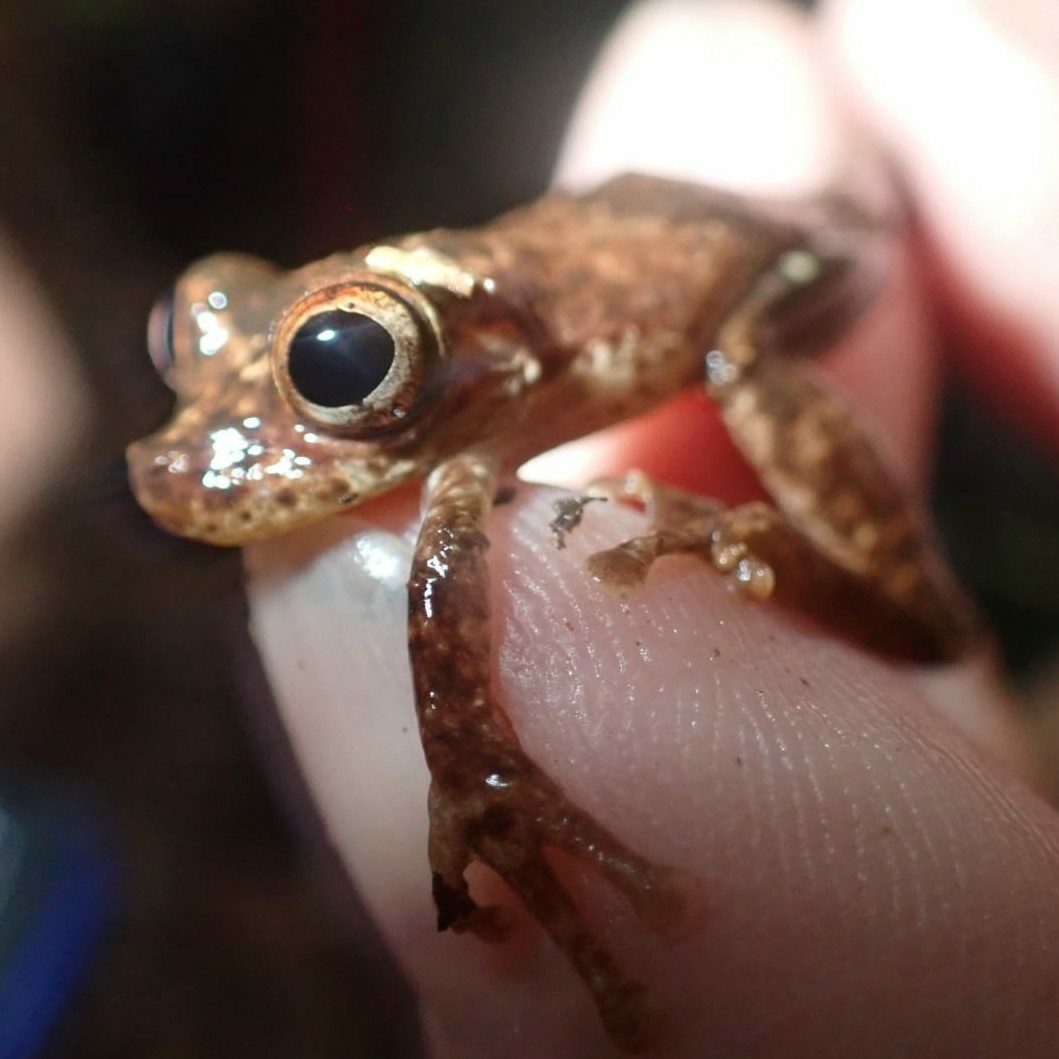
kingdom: Animalia
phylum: Chordata
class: Amphibia
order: Anura
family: Hylidae
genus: Dendropsophus
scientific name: Dendropsophus counani
